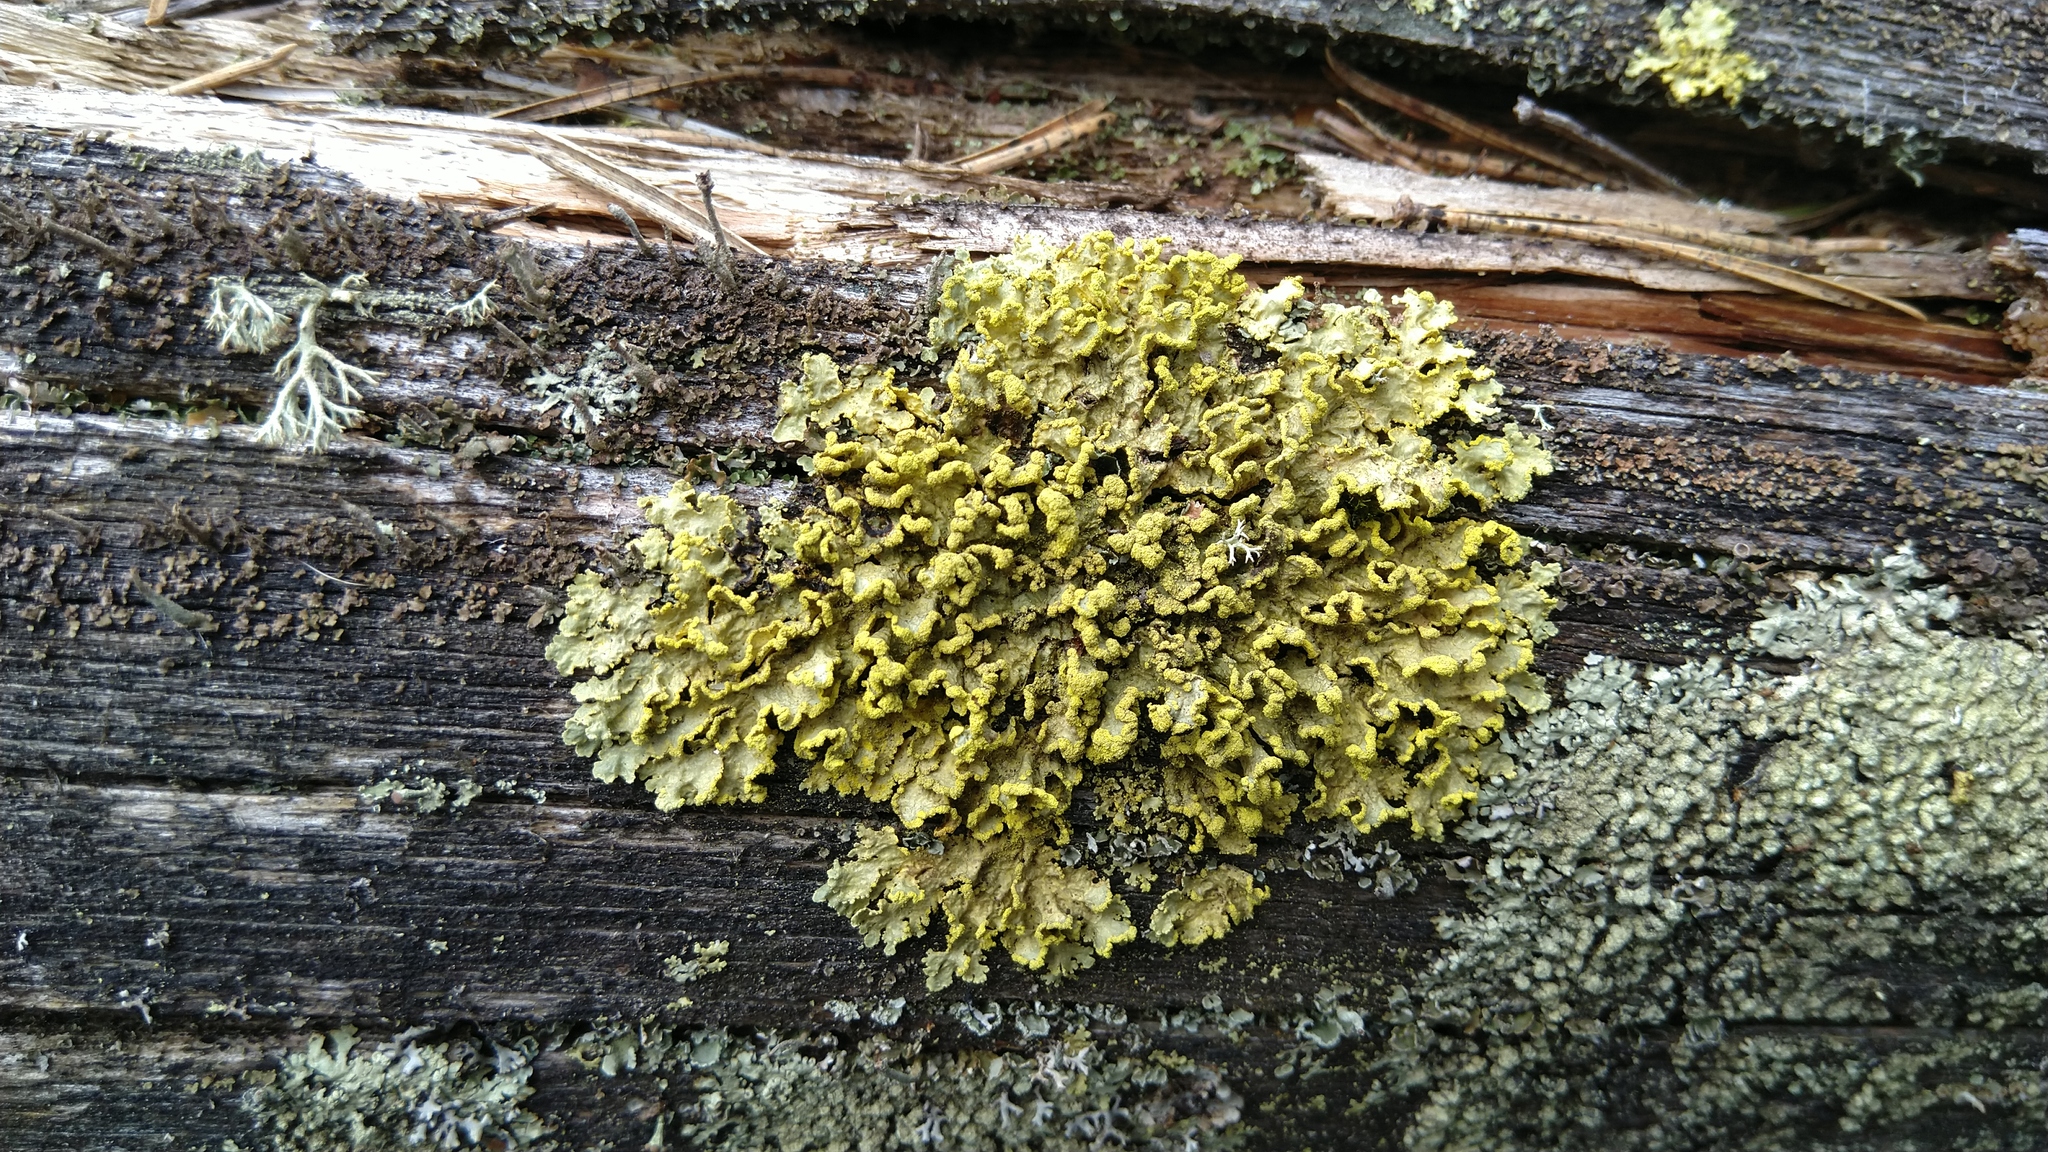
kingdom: Fungi
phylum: Ascomycota
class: Lecanoromycetes
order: Lecanorales
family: Parmeliaceae
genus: Vulpicida
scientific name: Vulpicida pinastri
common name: Powdered sunshine lichen
